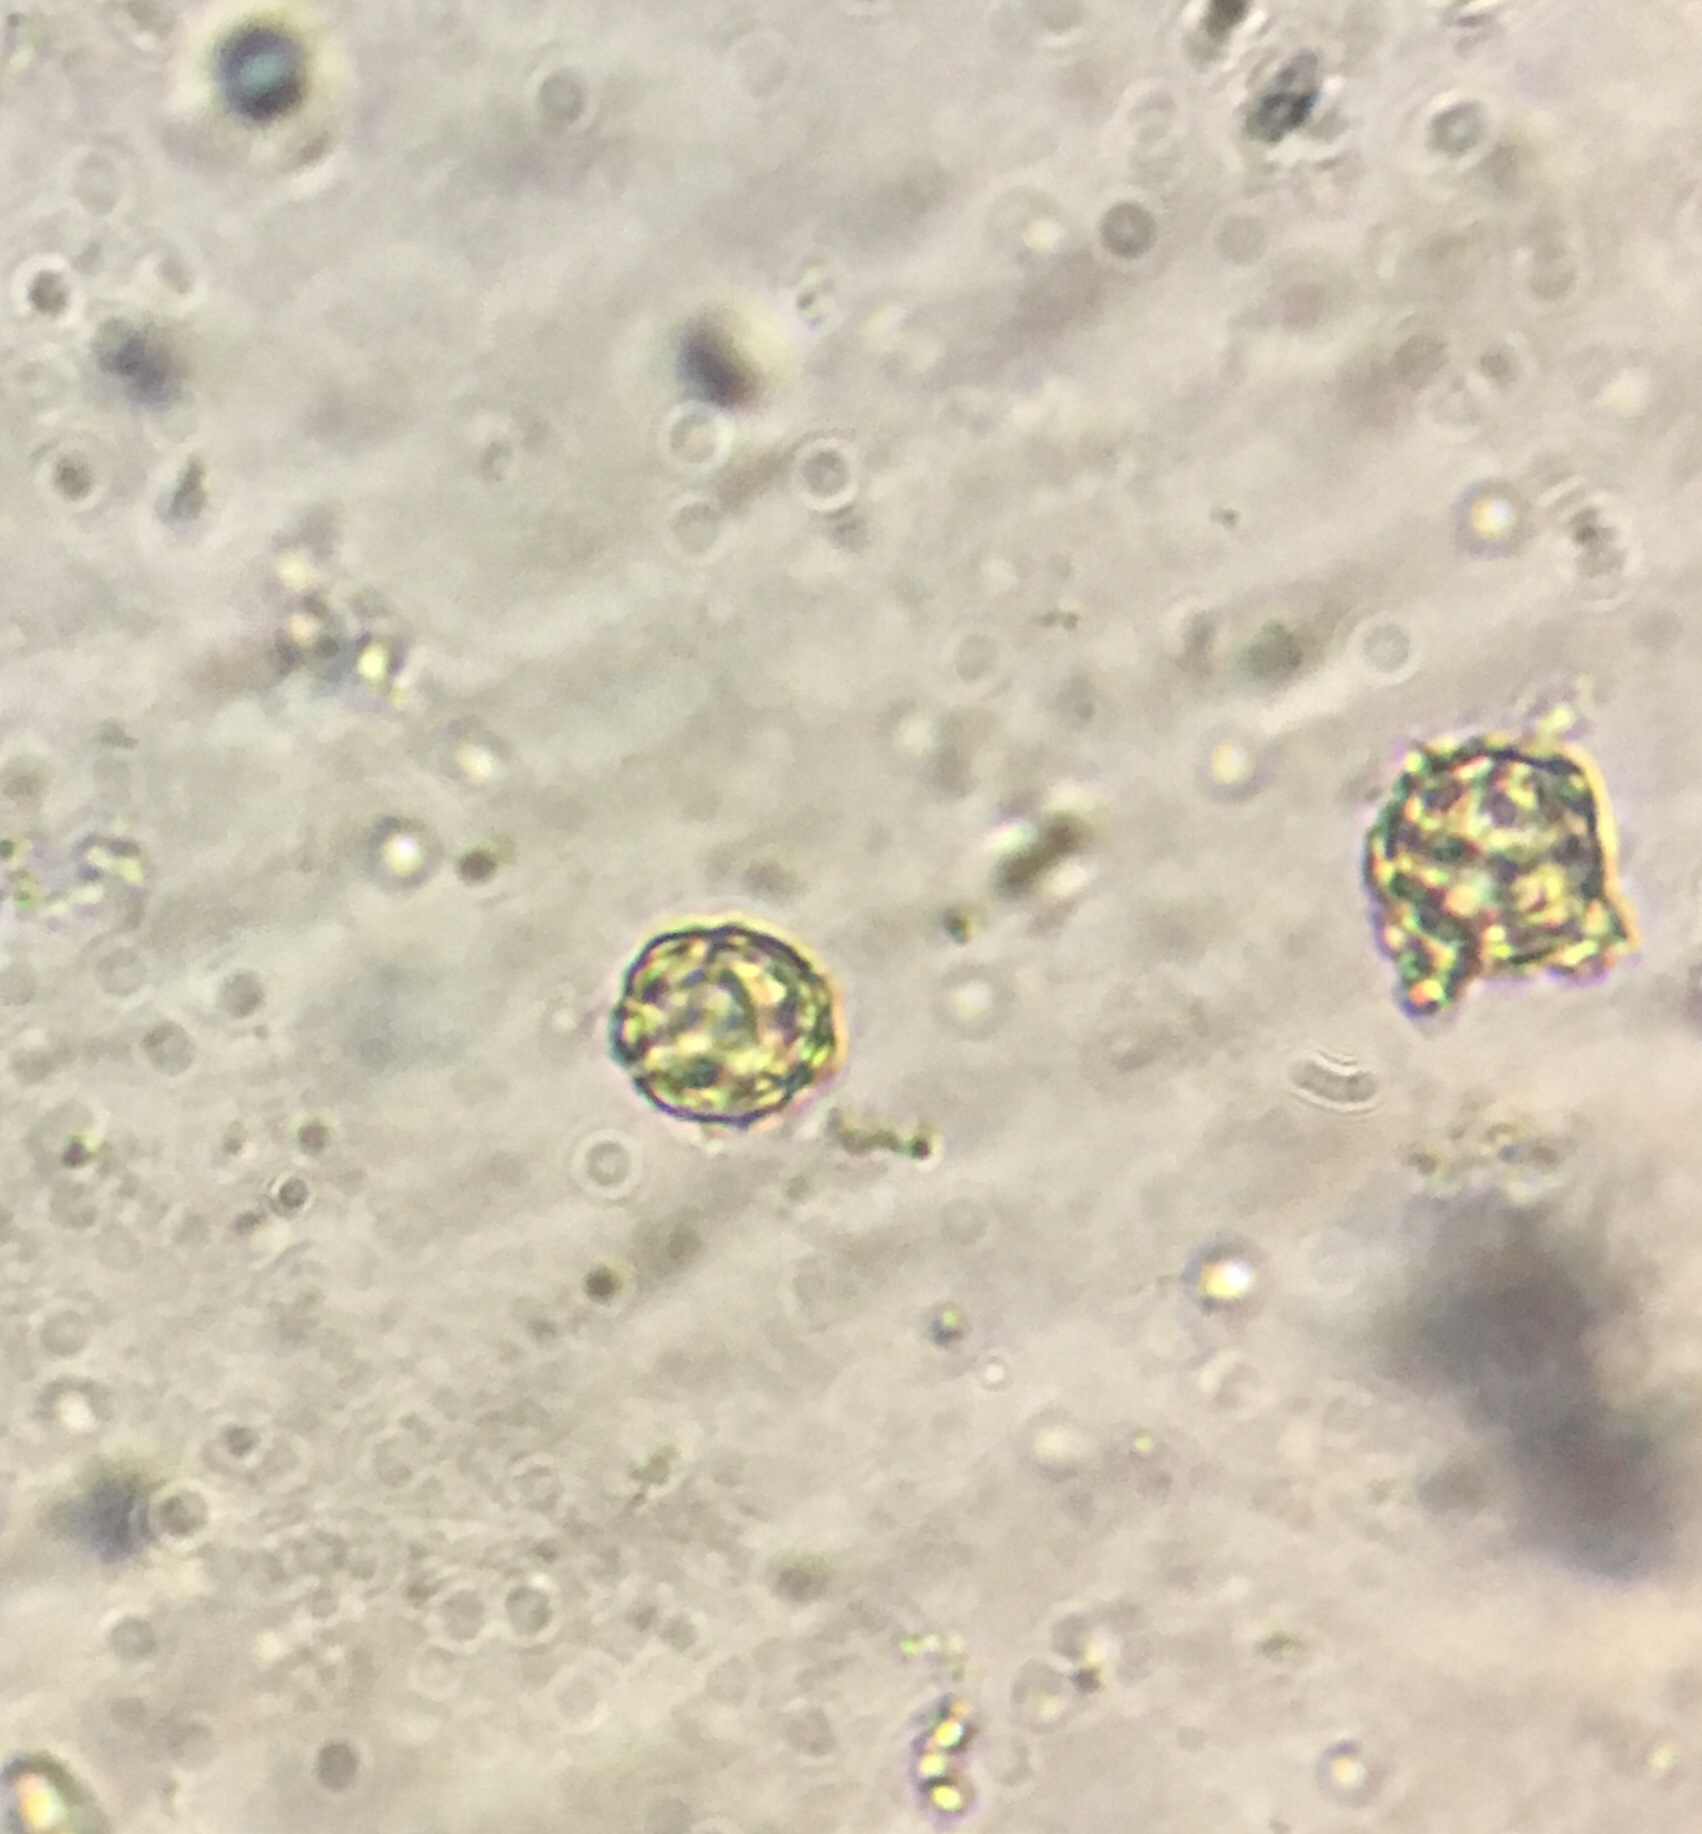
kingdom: Fungi
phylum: Basidiomycota
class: Agaricomycetes
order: Russulales
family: Russulaceae
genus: Russula
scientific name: Russula amoenolens
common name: Camembert brittlegill
